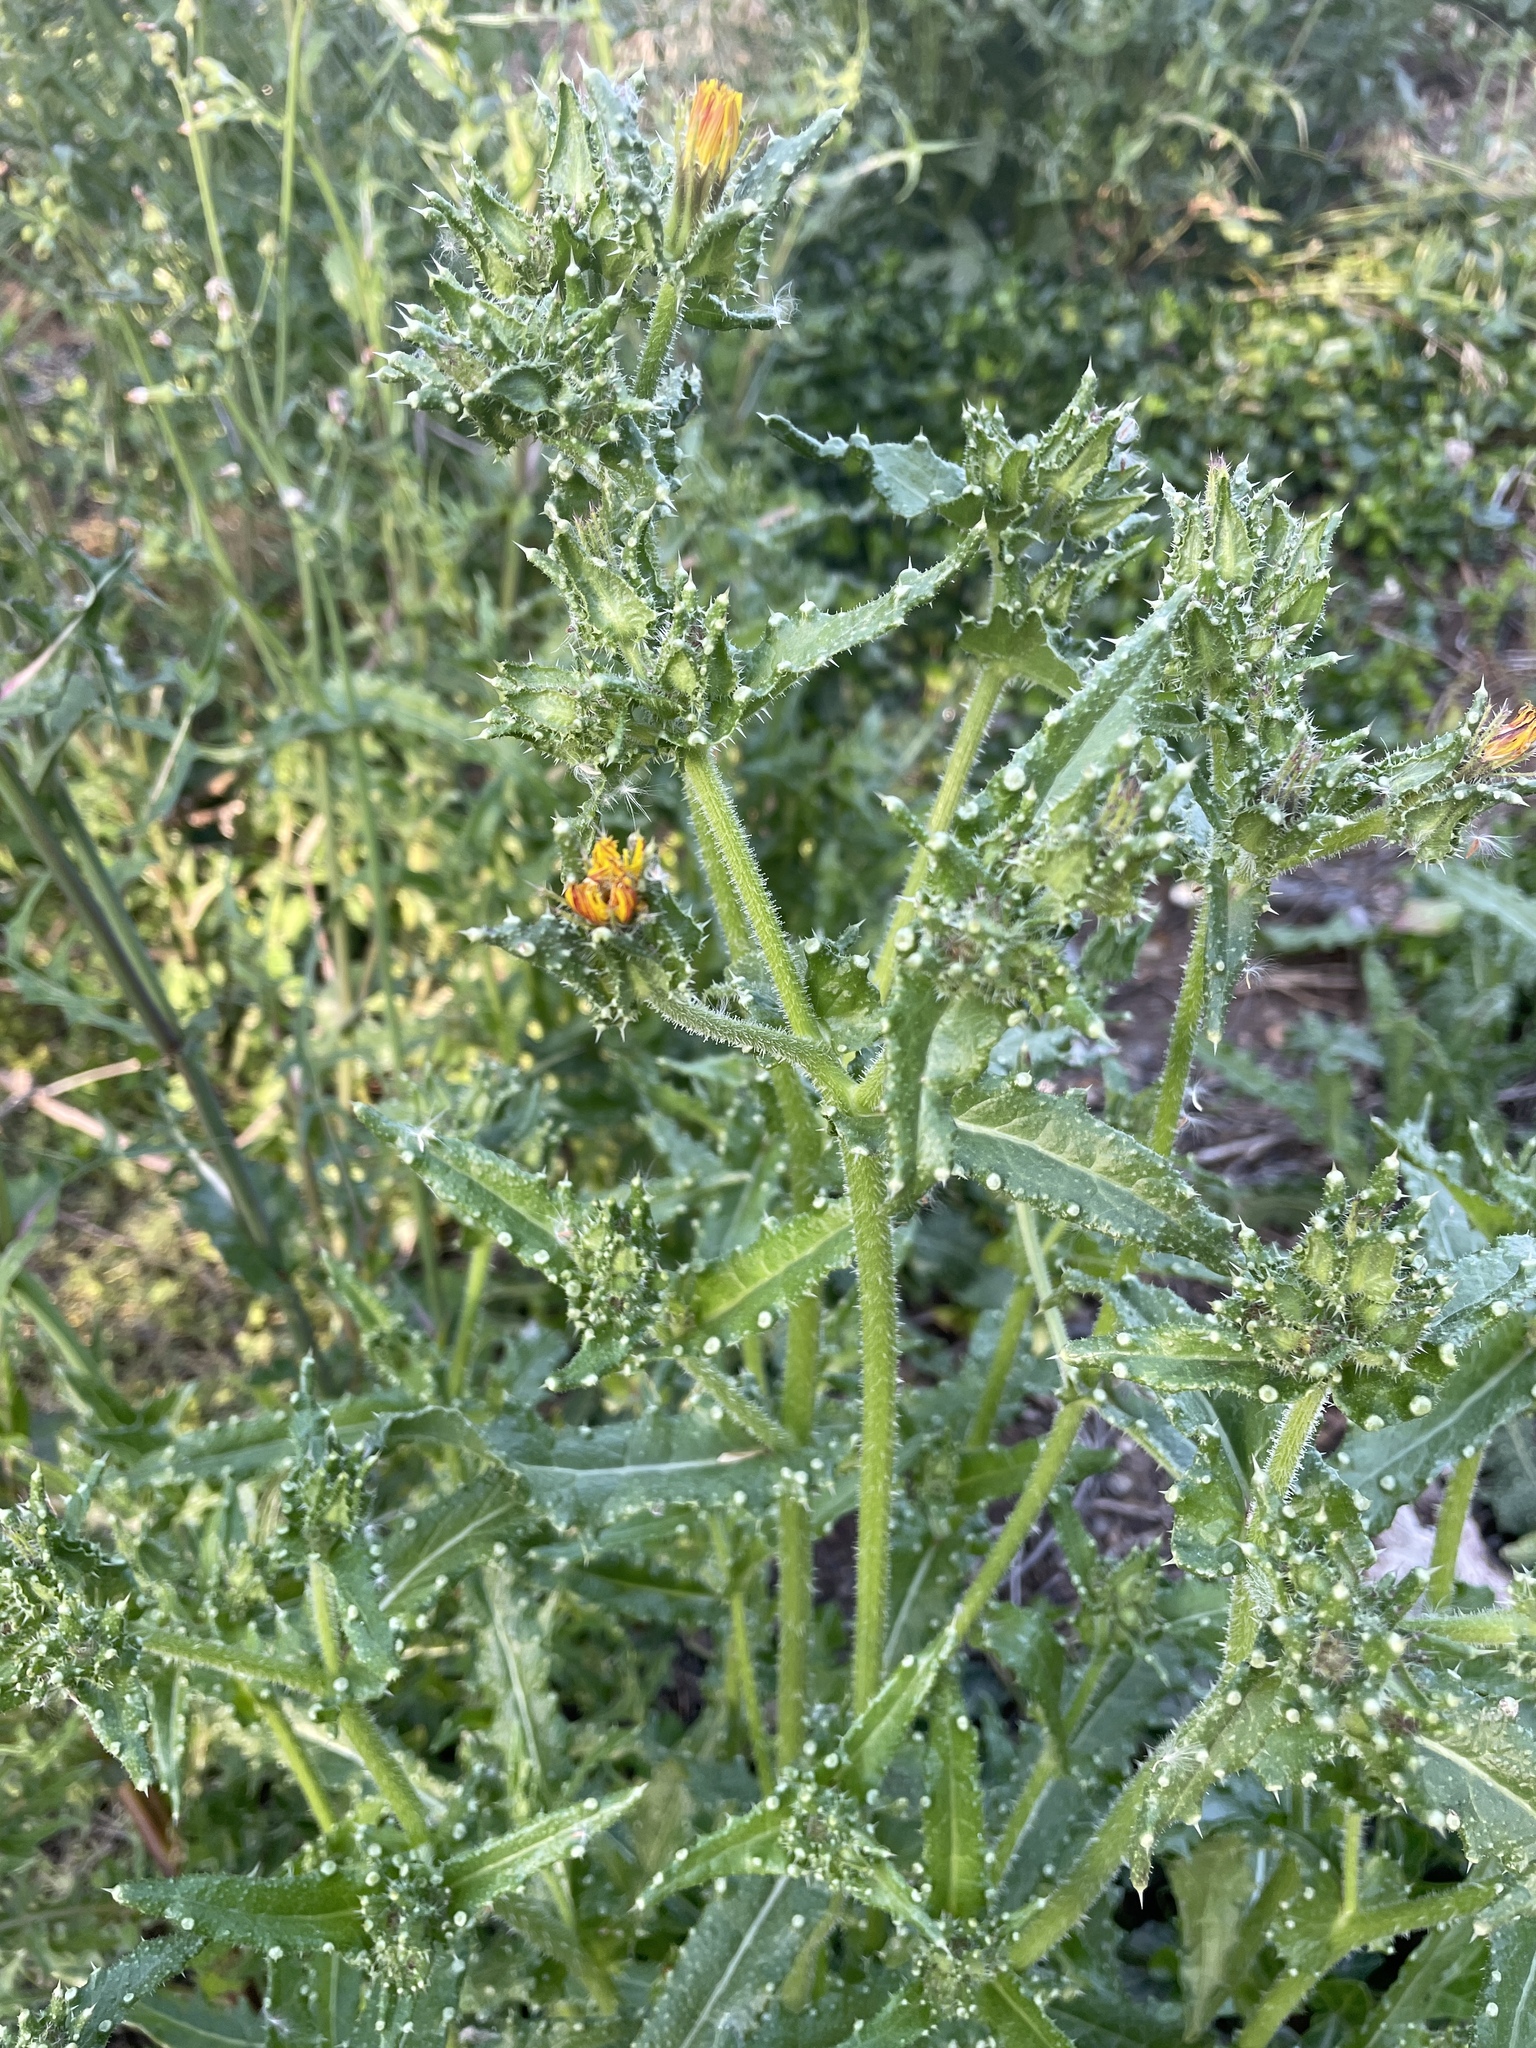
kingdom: Plantae
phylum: Tracheophyta
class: Magnoliopsida
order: Asterales
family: Asteraceae
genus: Helminthotheca
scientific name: Helminthotheca echioides
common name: Ox-tongue
